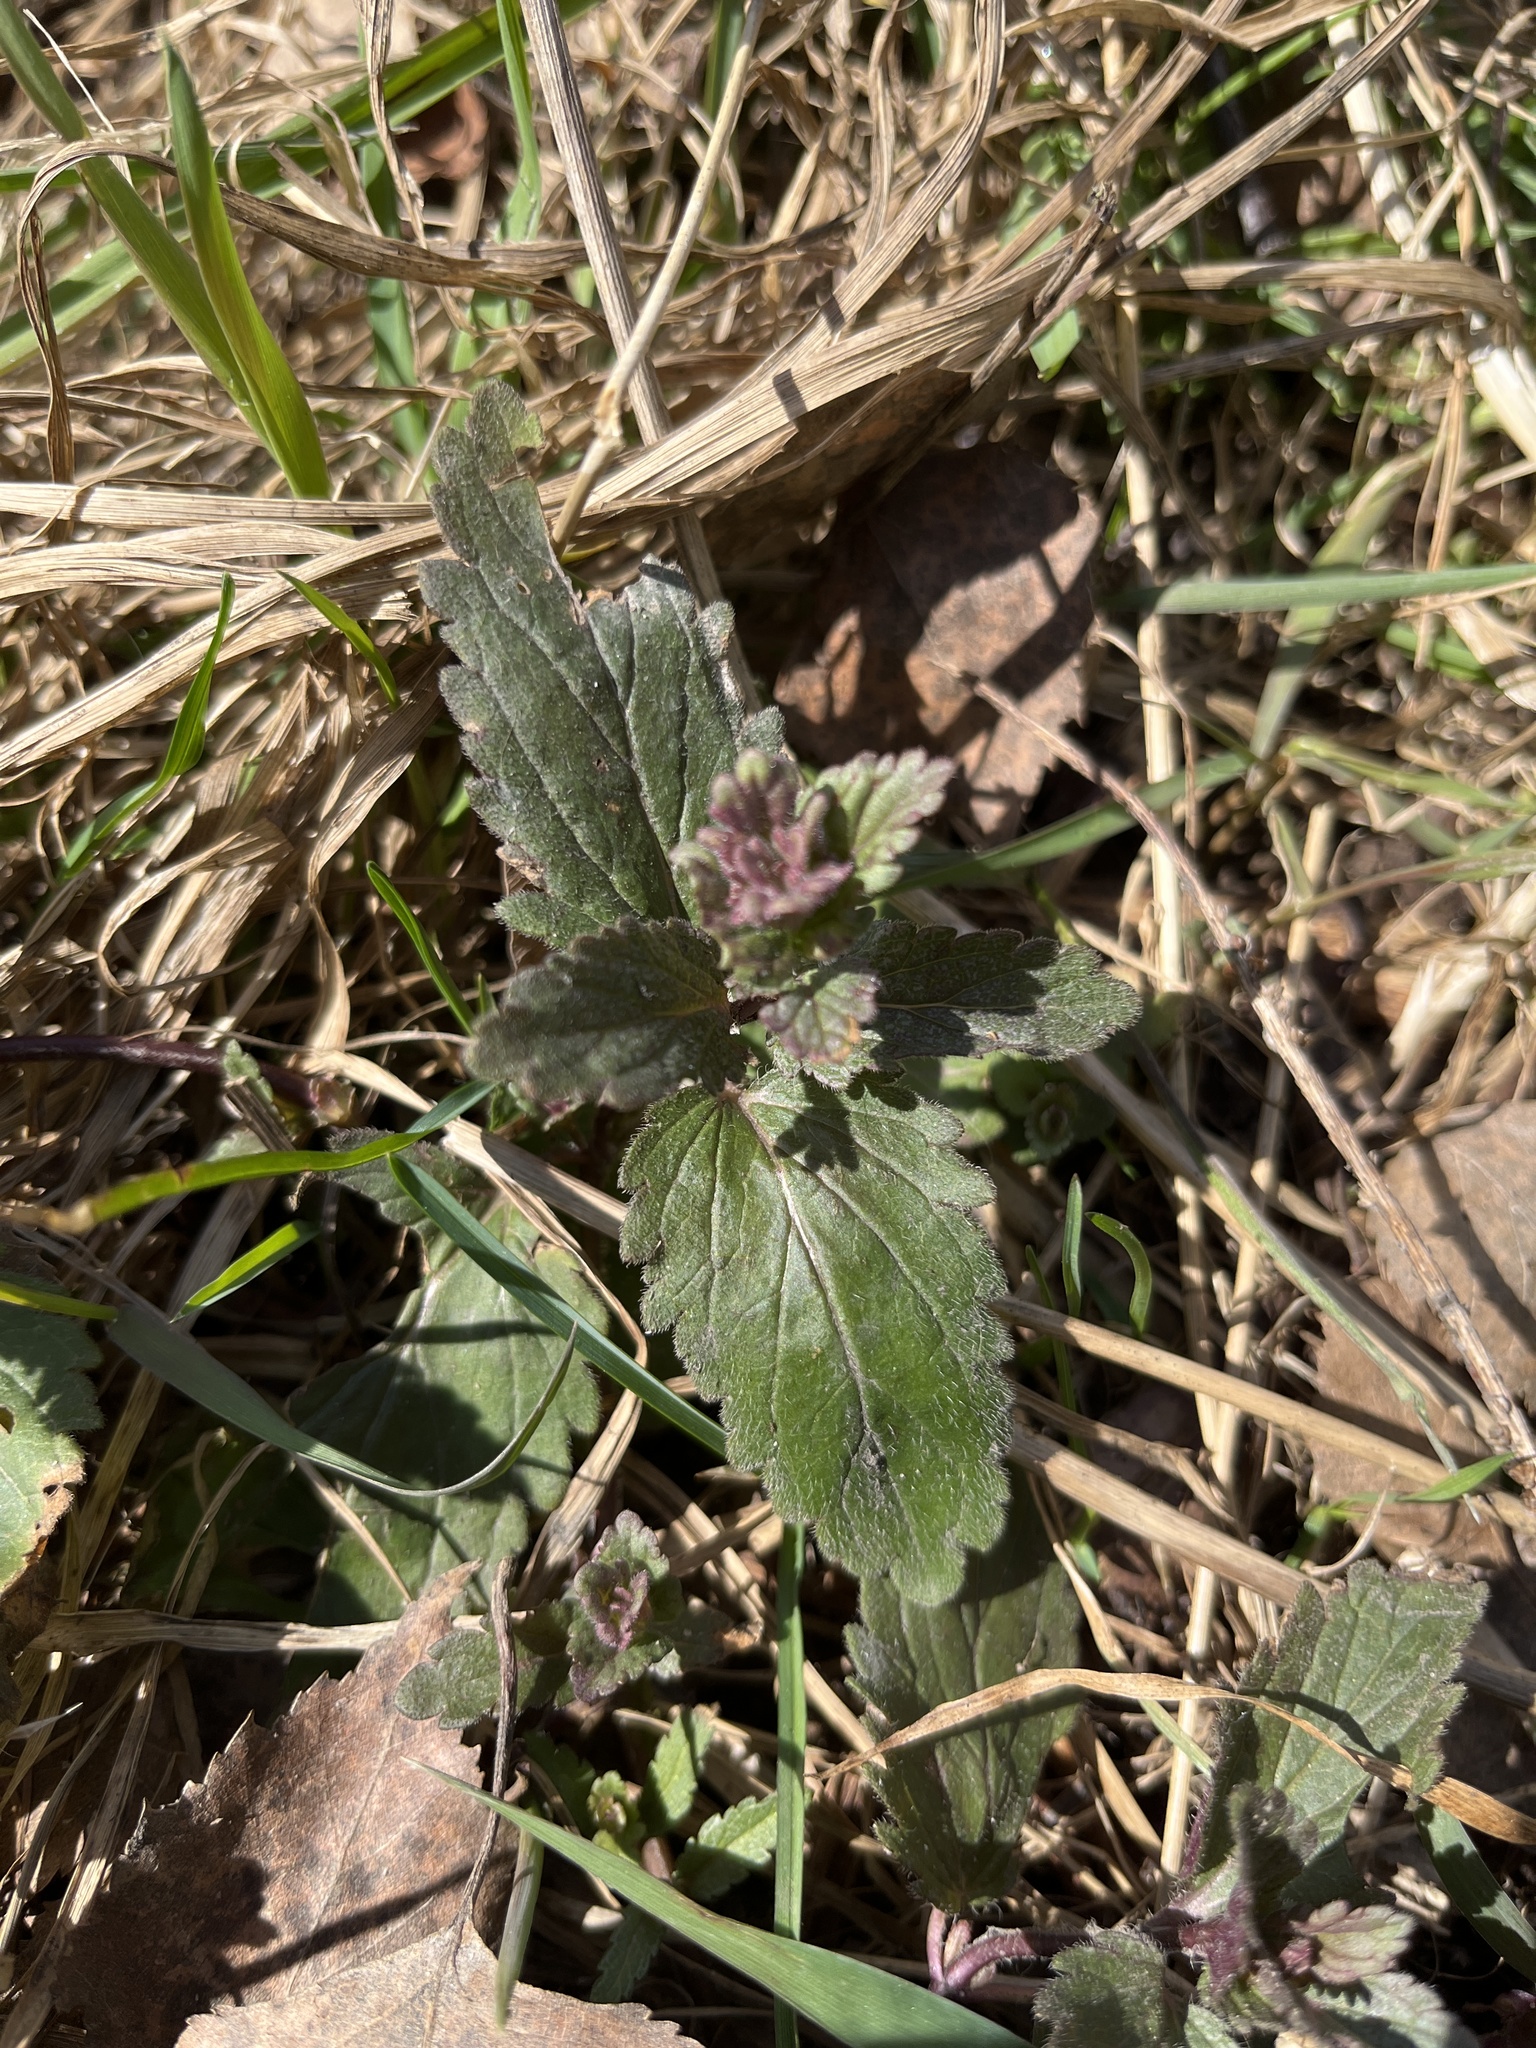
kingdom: Plantae
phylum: Tracheophyta
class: Magnoliopsida
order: Lamiales
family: Plantaginaceae
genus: Veronica
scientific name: Veronica chamaedrys
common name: Germander speedwell
